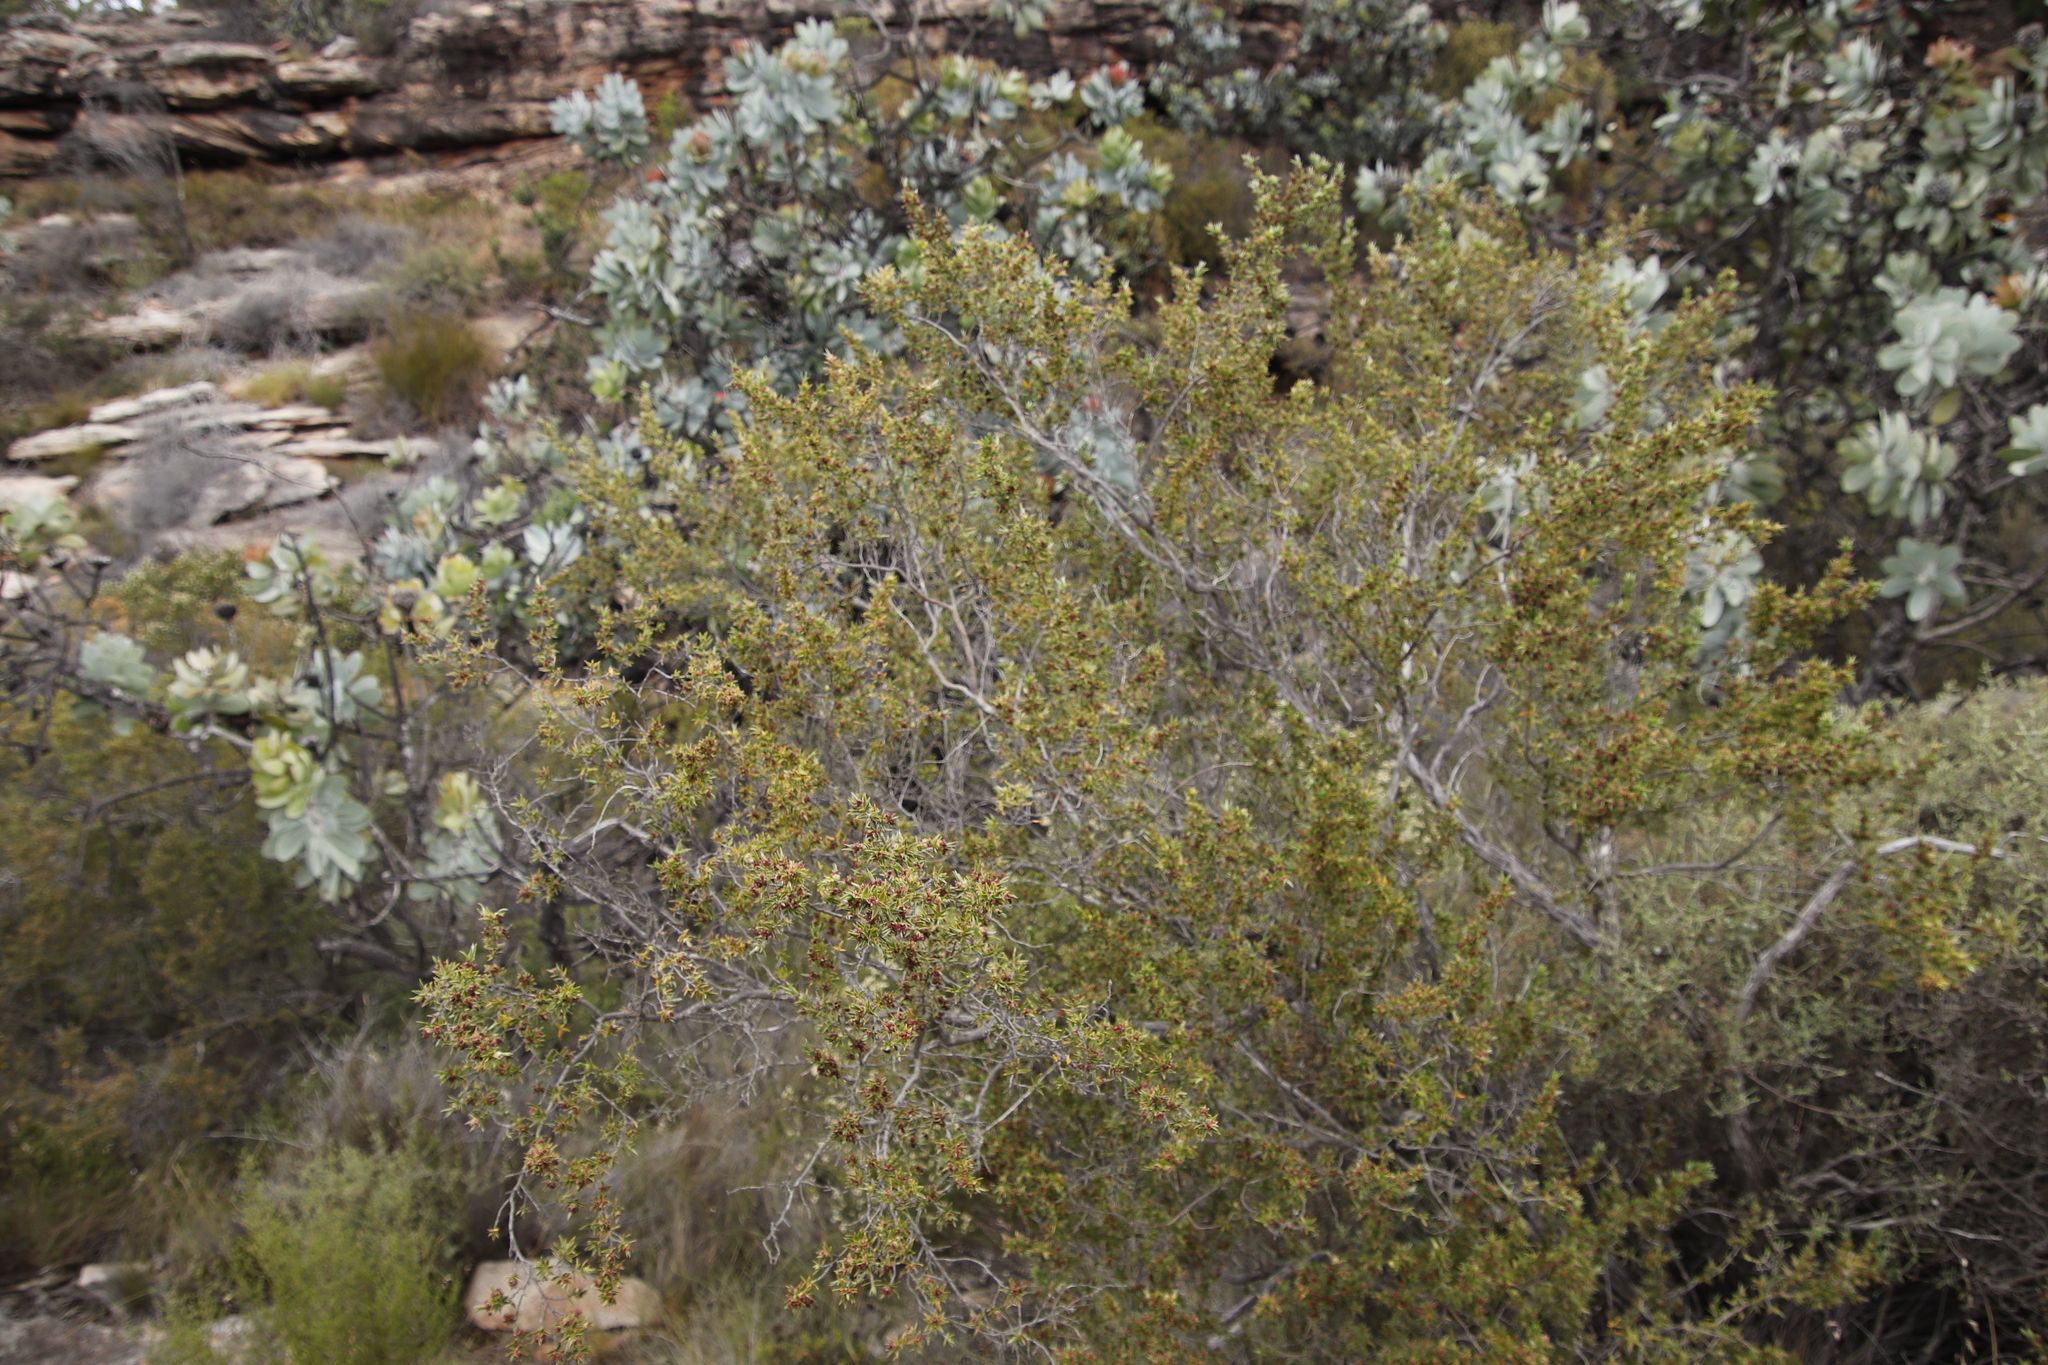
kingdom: Plantae
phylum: Tracheophyta
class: Magnoliopsida
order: Rosales
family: Rosaceae
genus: Cliffortia
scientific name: Cliffortia ruscifolia
